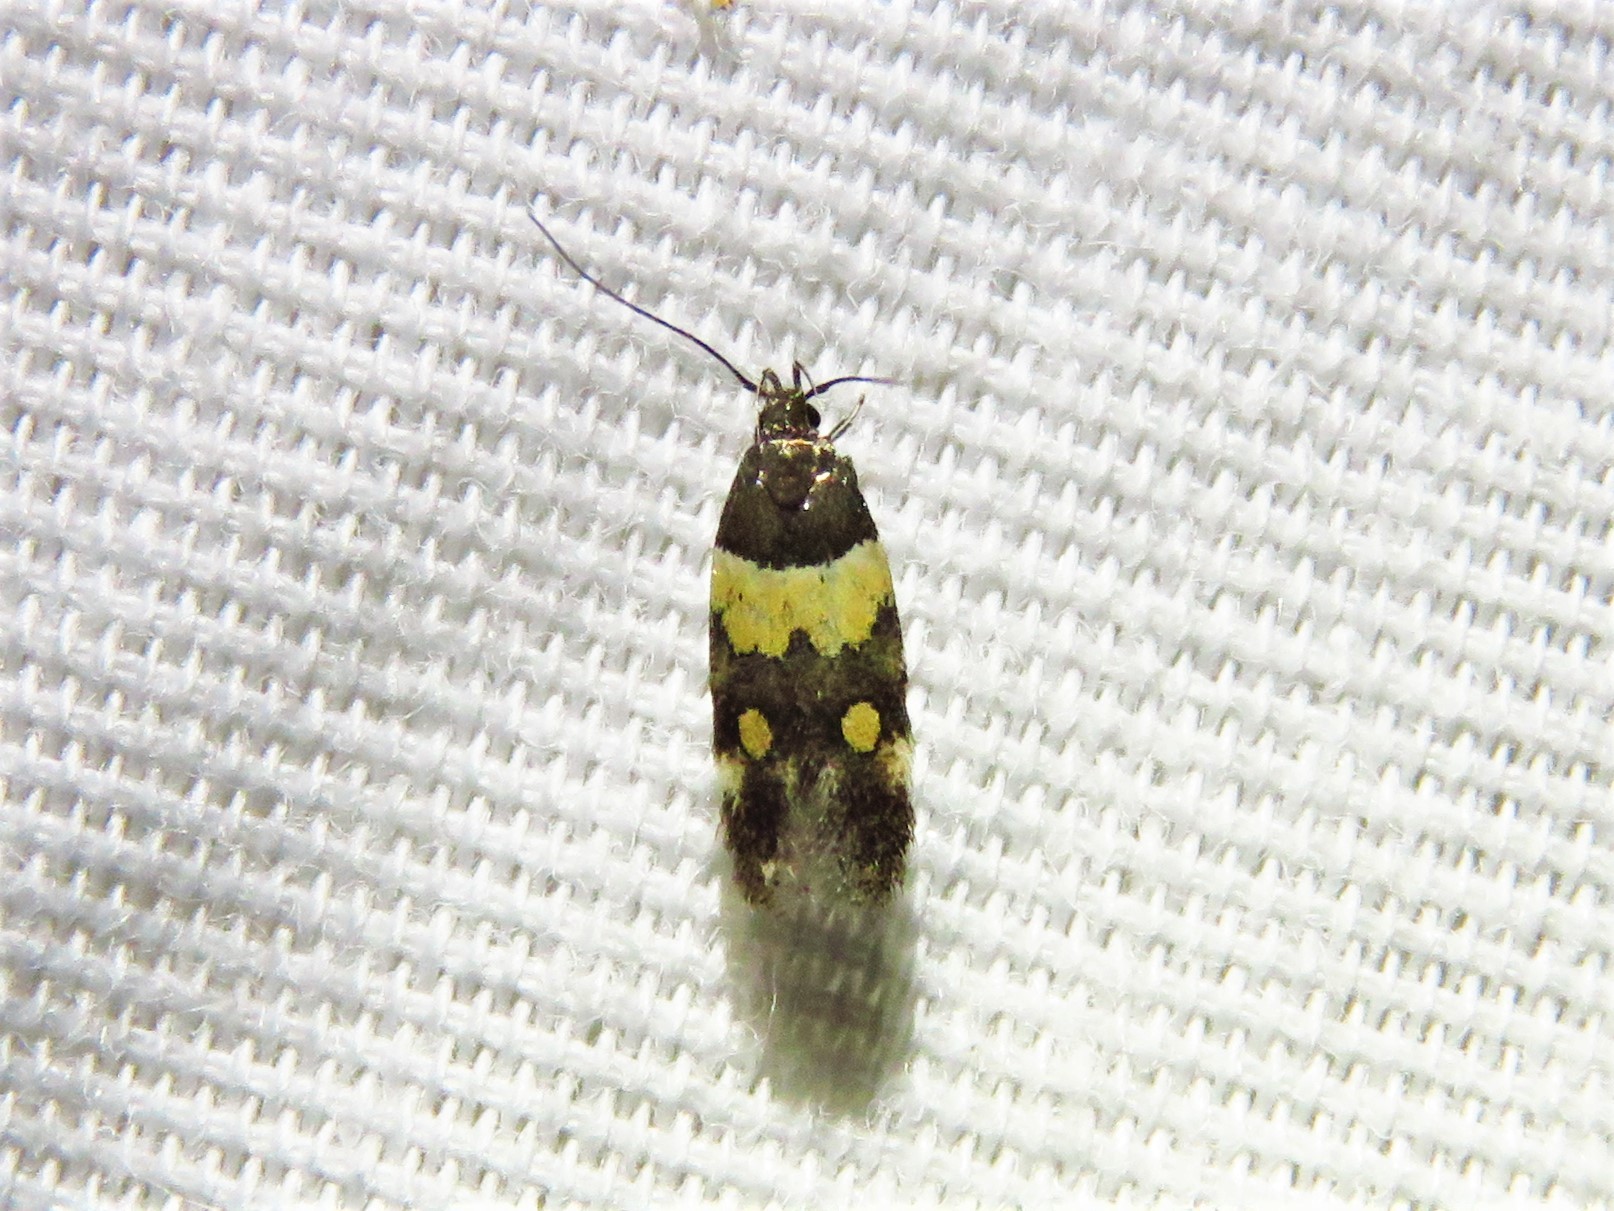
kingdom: Animalia
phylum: Arthropoda
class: Insecta
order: Lepidoptera
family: Momphidae
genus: Triclonella
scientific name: Triclonella determinatella
